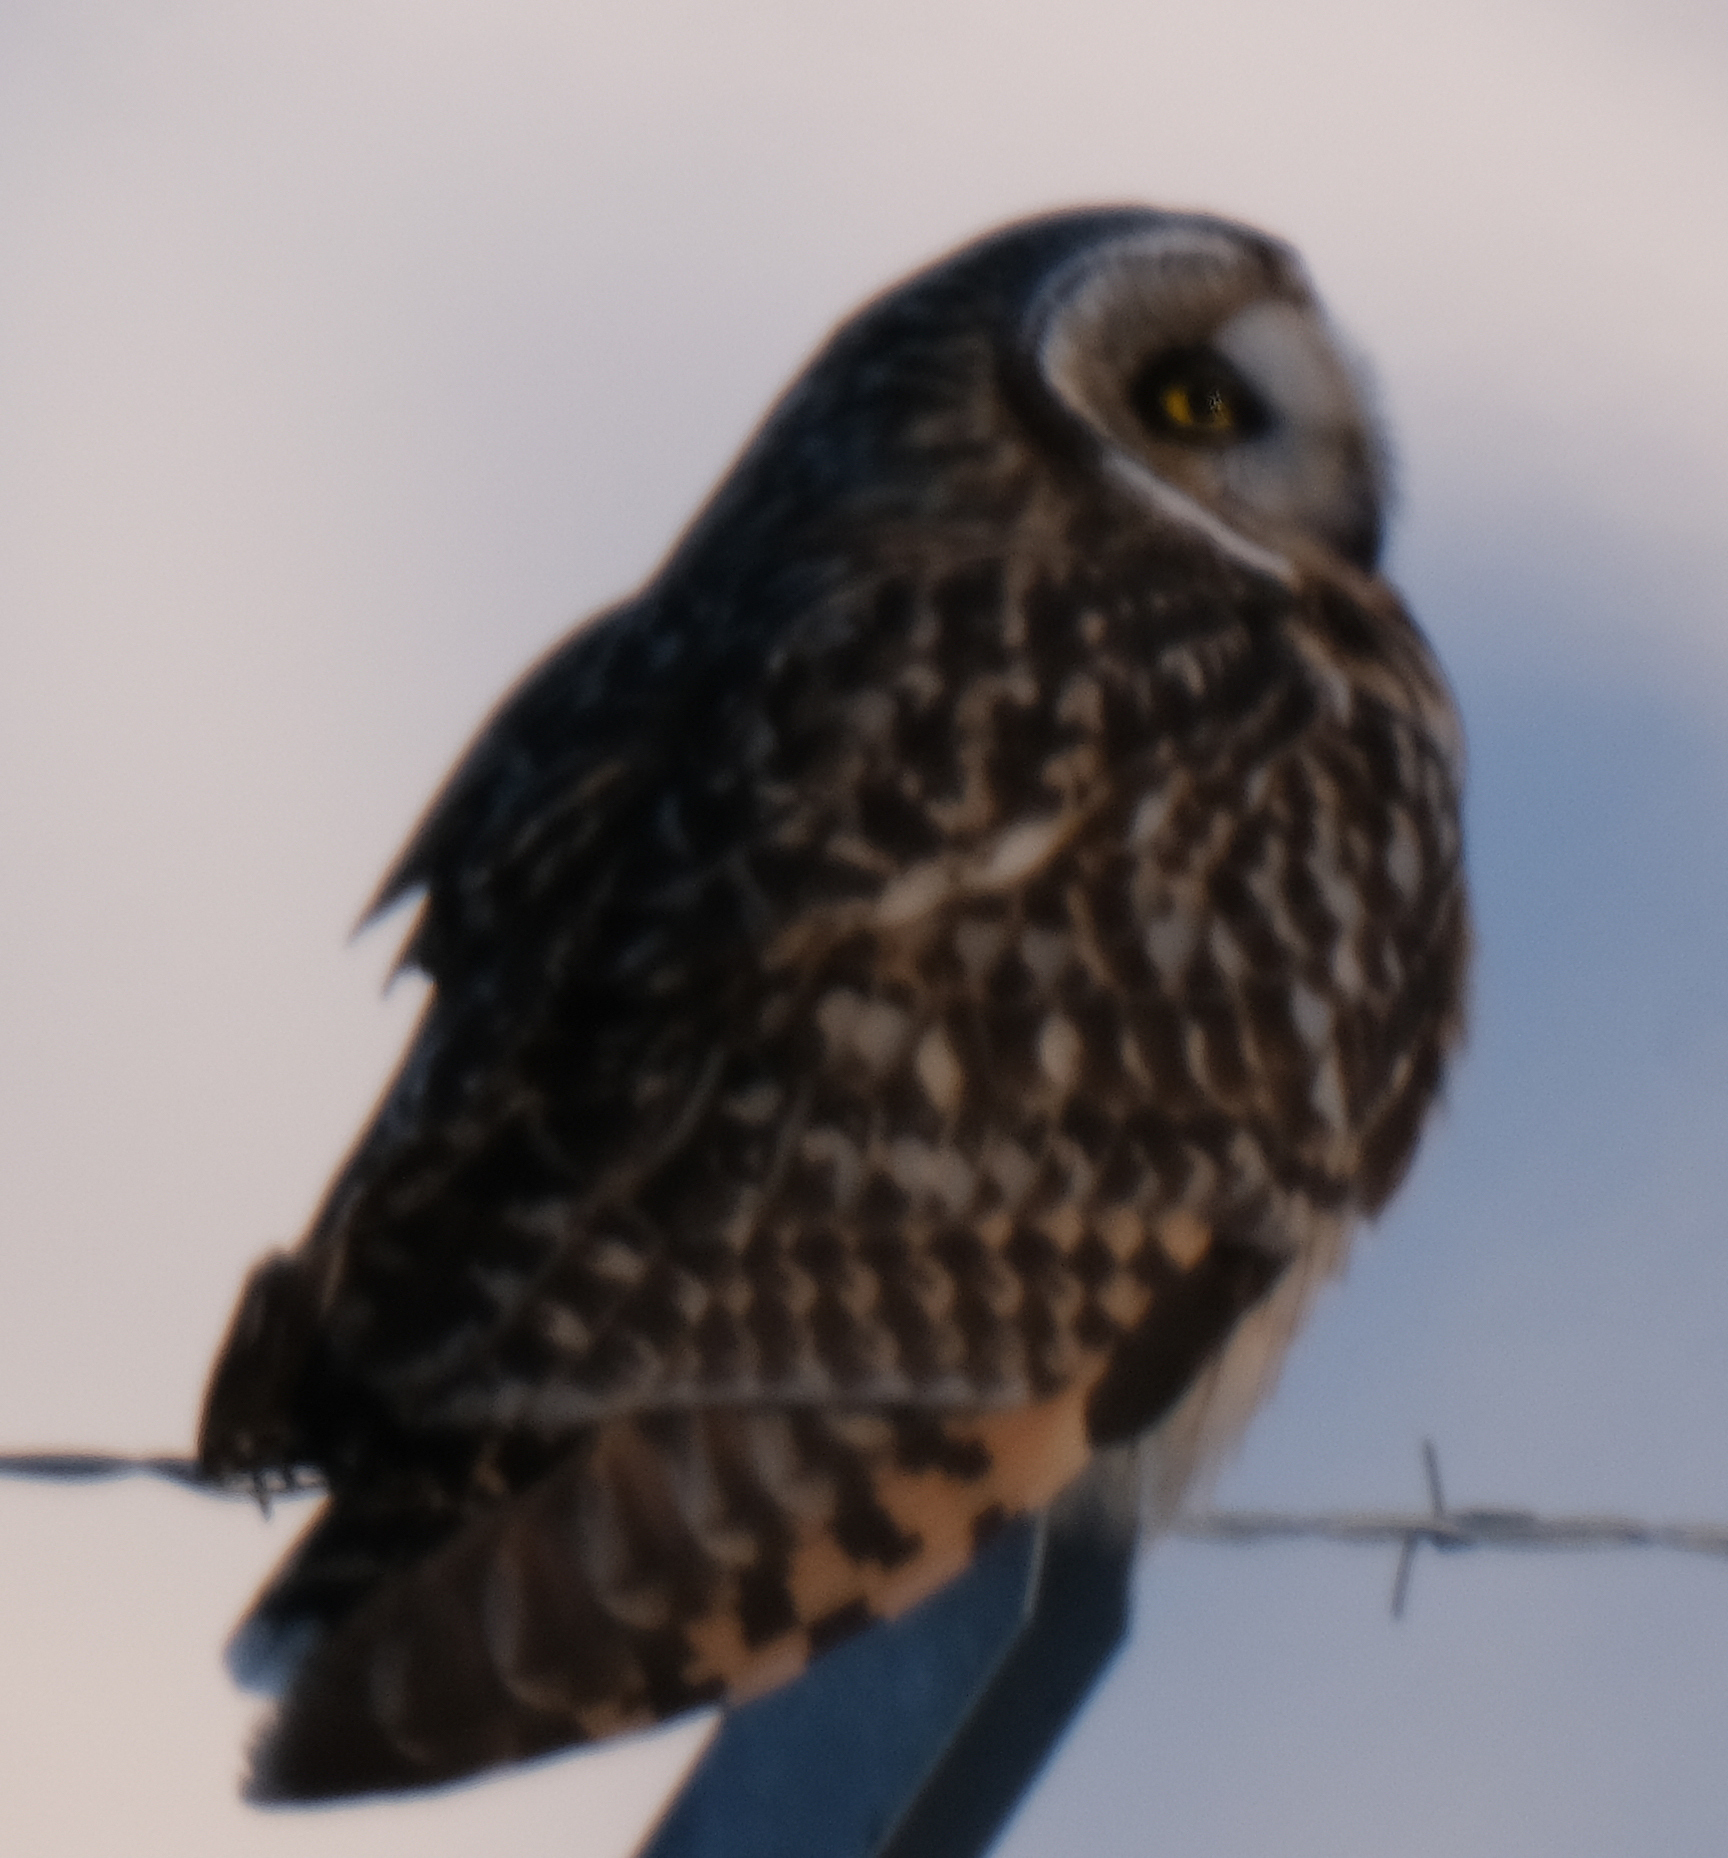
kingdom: Animalia
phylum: Chordata
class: Aves
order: Strigiformes
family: Strigidae
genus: Asio
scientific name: Asio flammeus
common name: Short-eared owl
